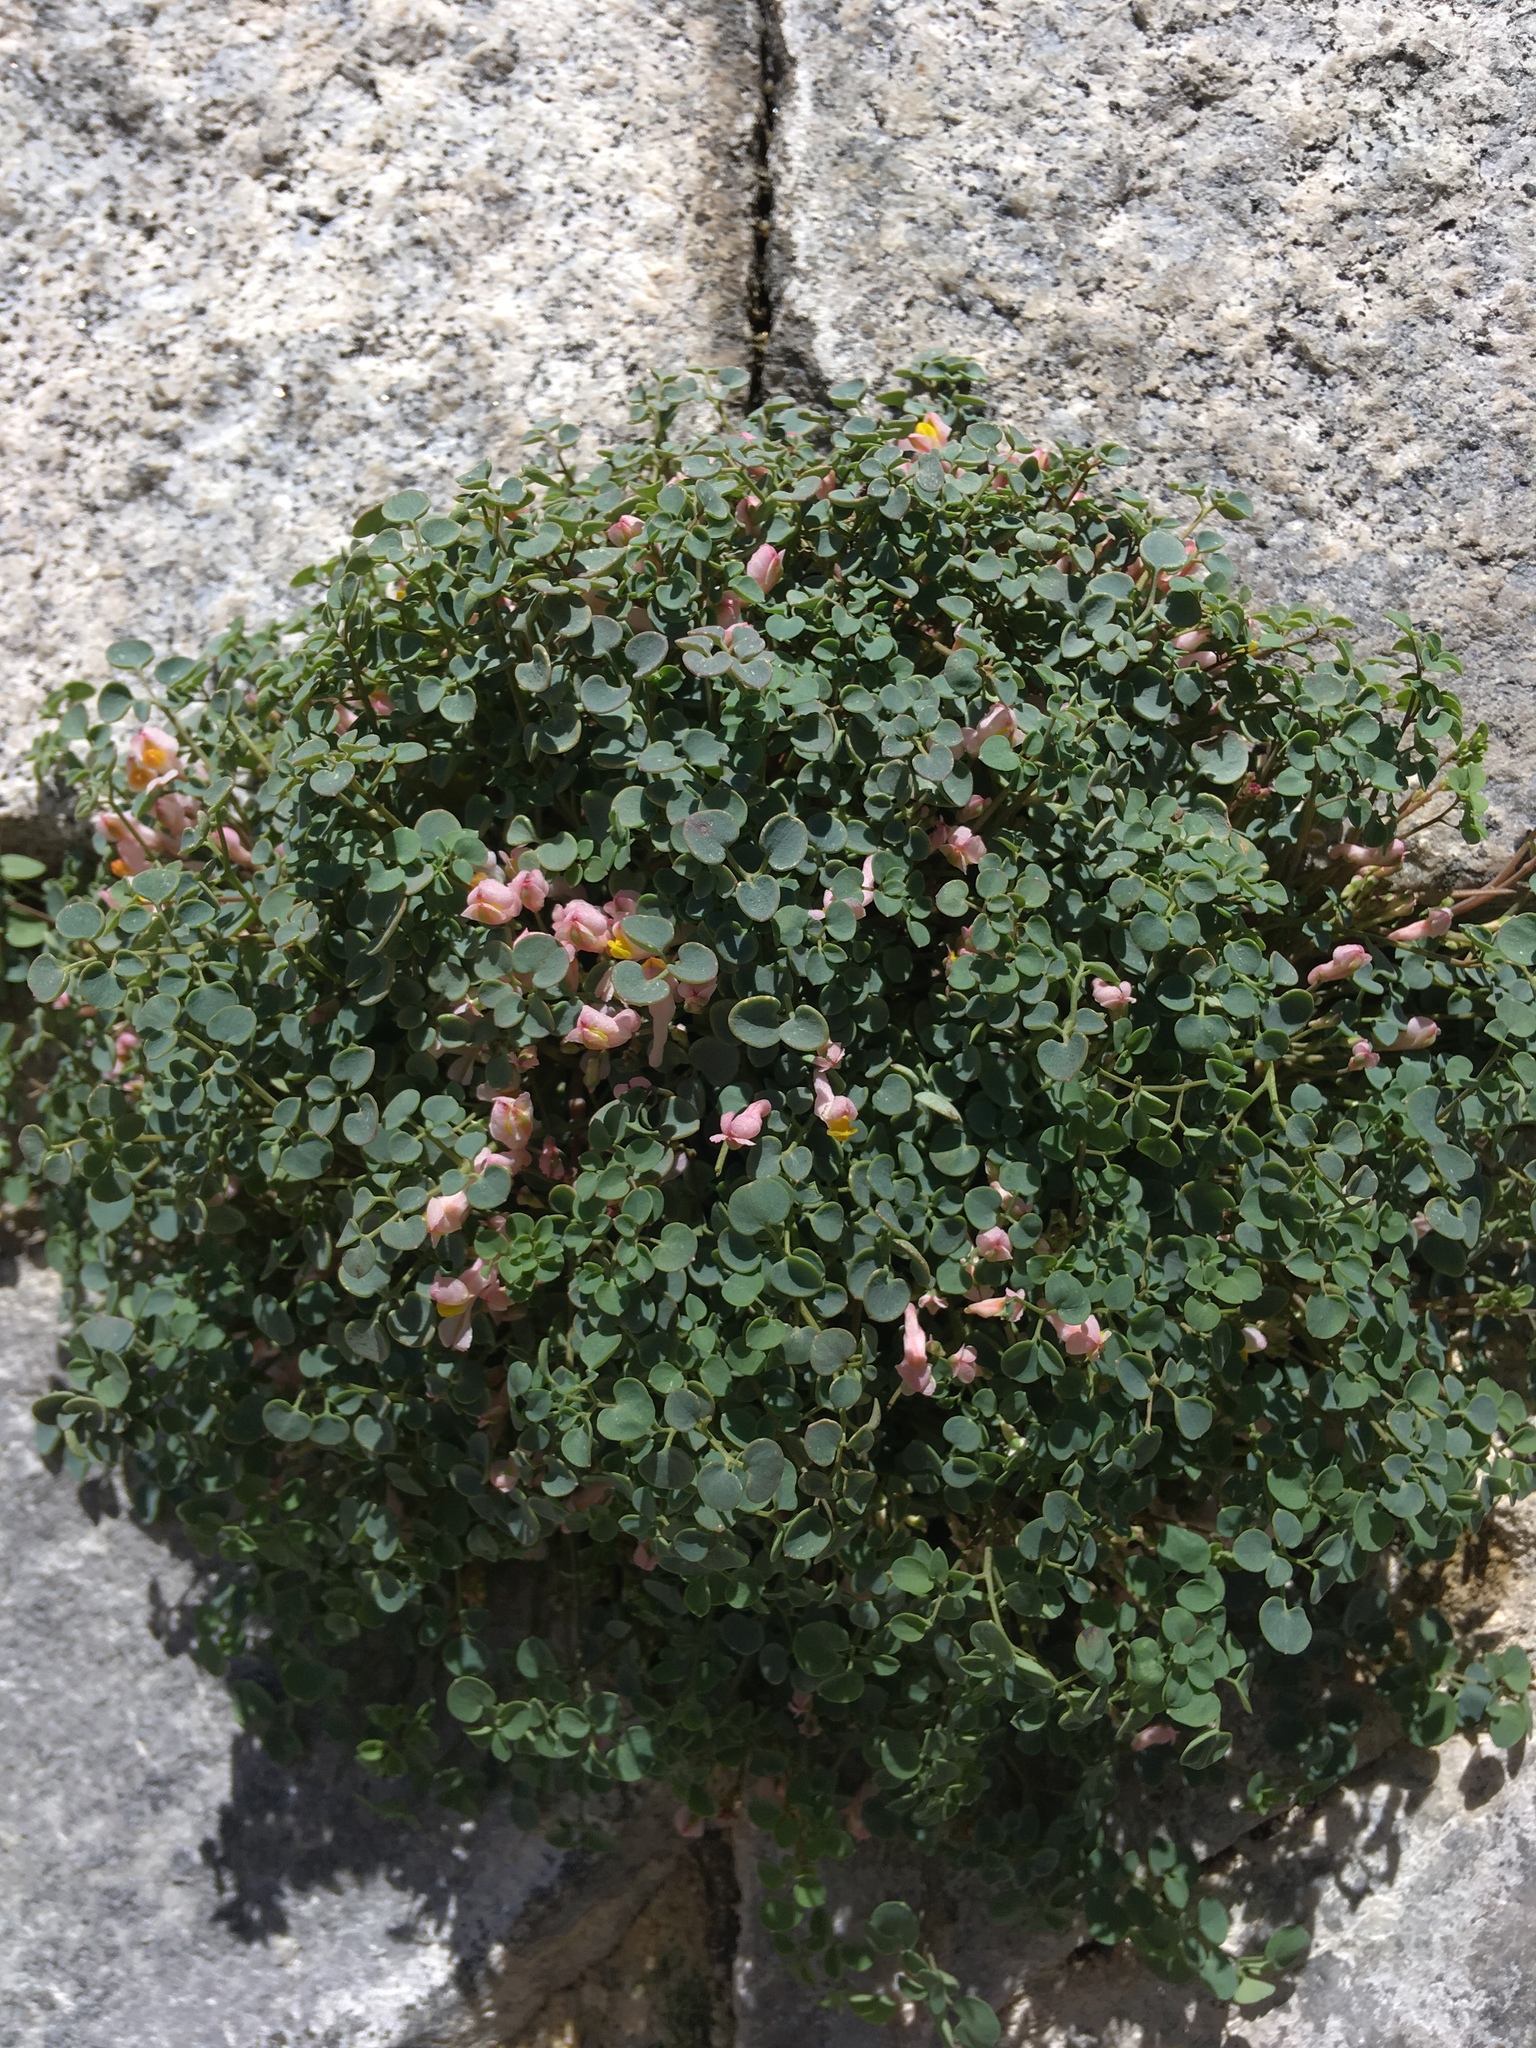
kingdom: Plantae
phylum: Tracheophyta
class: Magnoliopsida
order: Ranunculales
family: Papaveraceae
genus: Sarcocapnos
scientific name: Sarcocapnos enneaphylla
